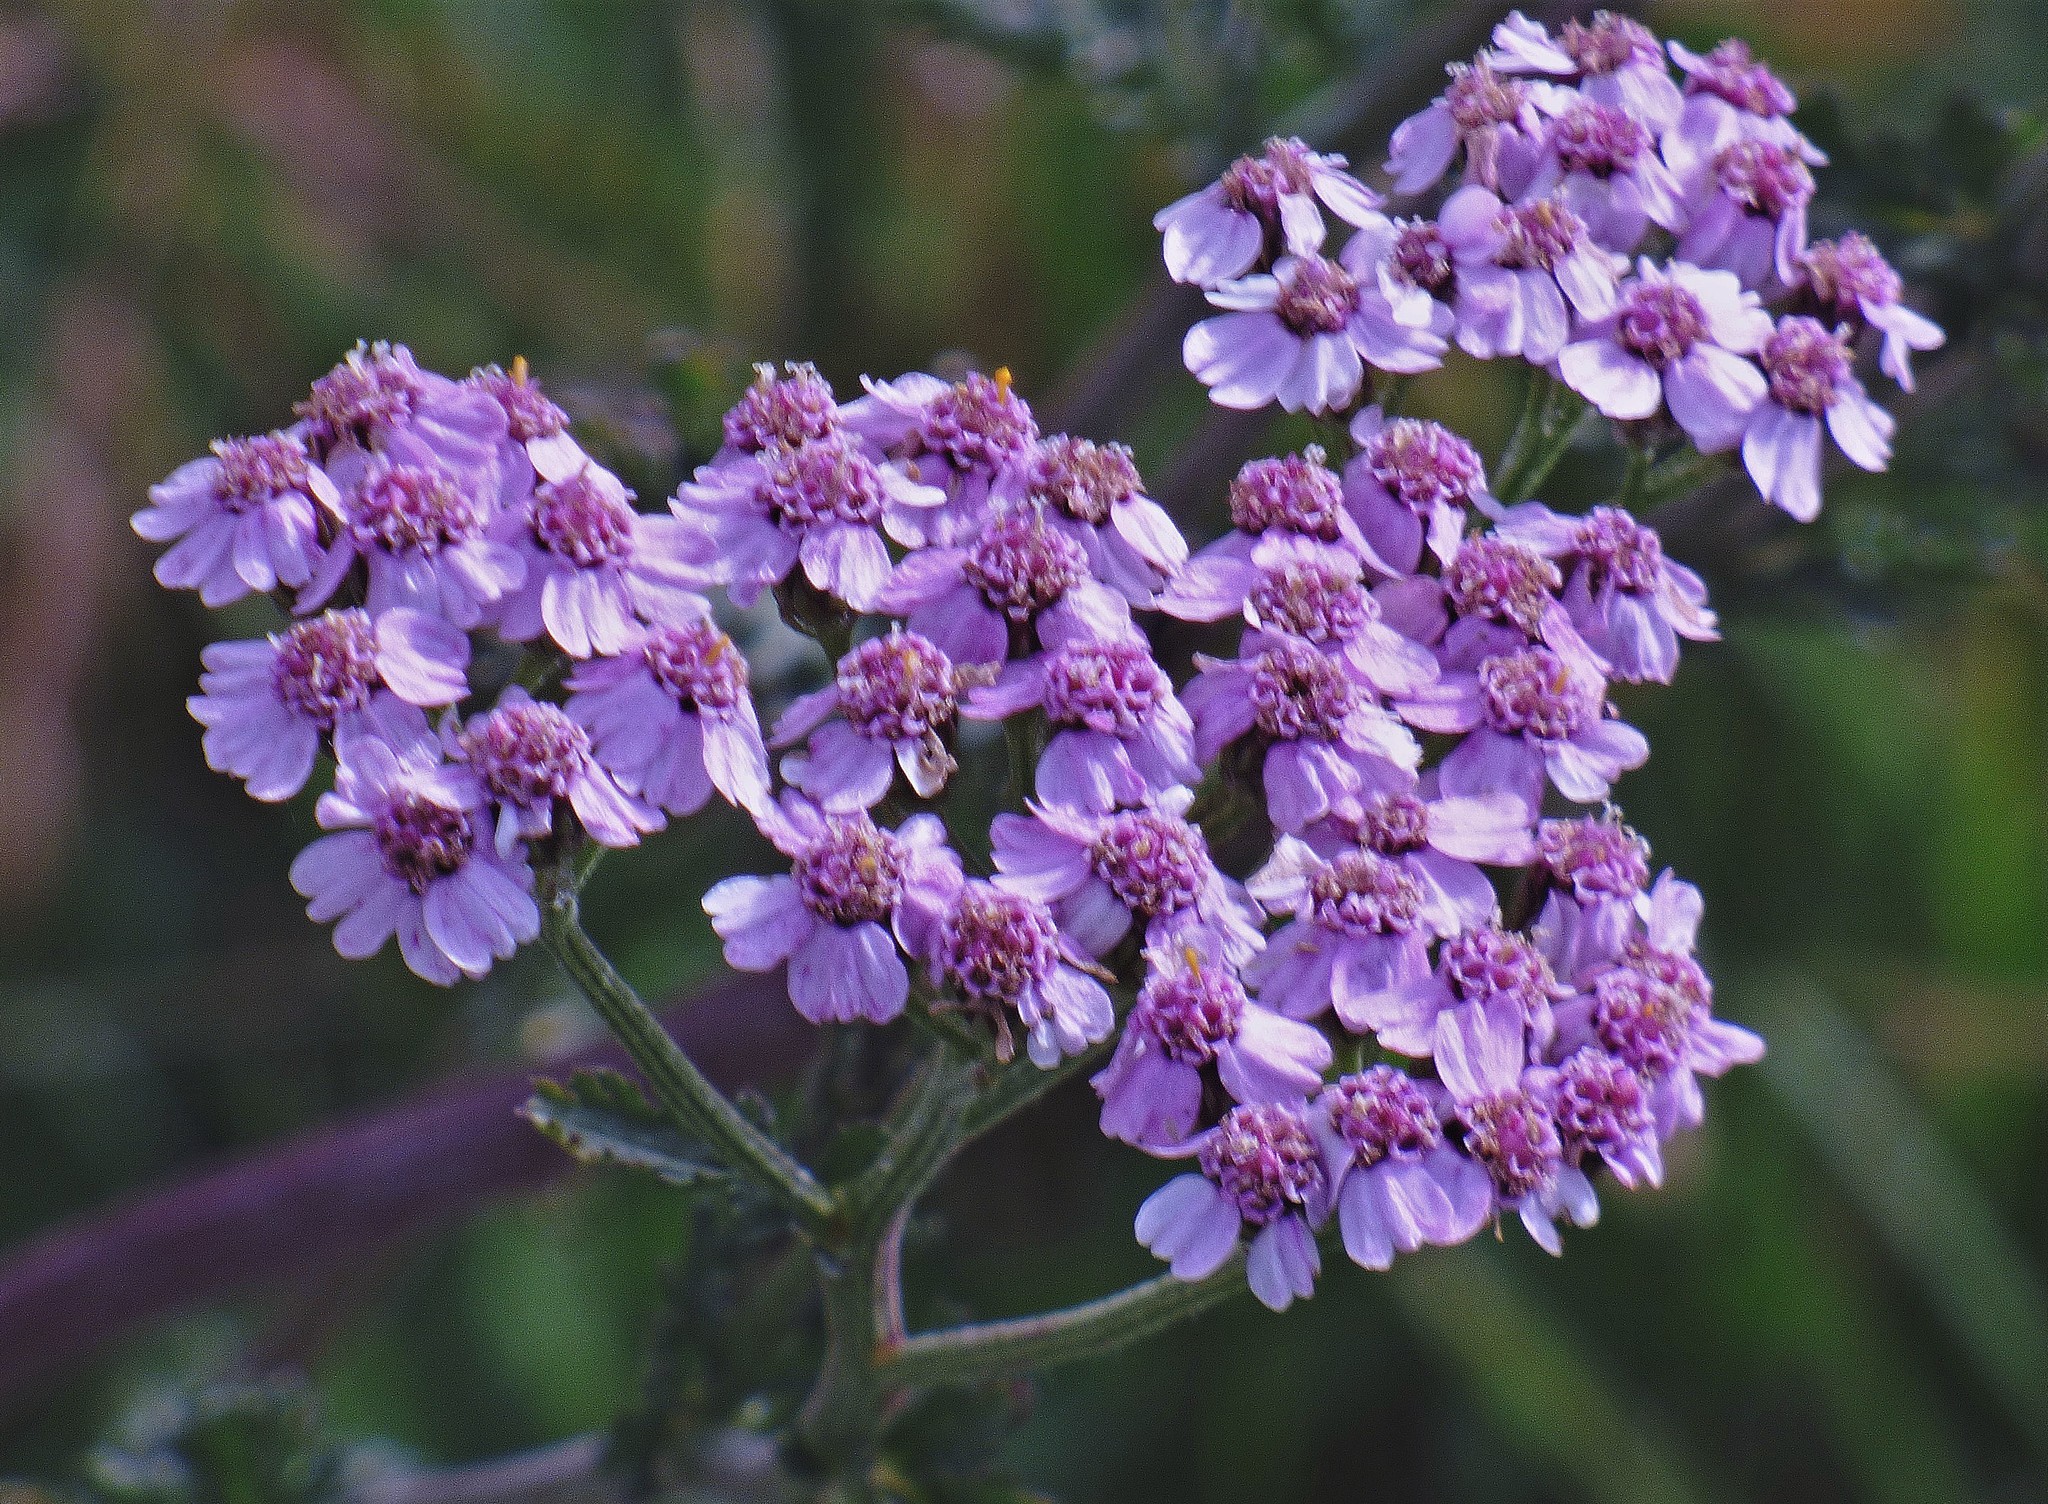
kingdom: Plantae
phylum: Tracheophyta
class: Magnoliopsida
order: Asterales
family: Asteraceae
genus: Achillea
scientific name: Achillea millefolium
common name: Yarrow
